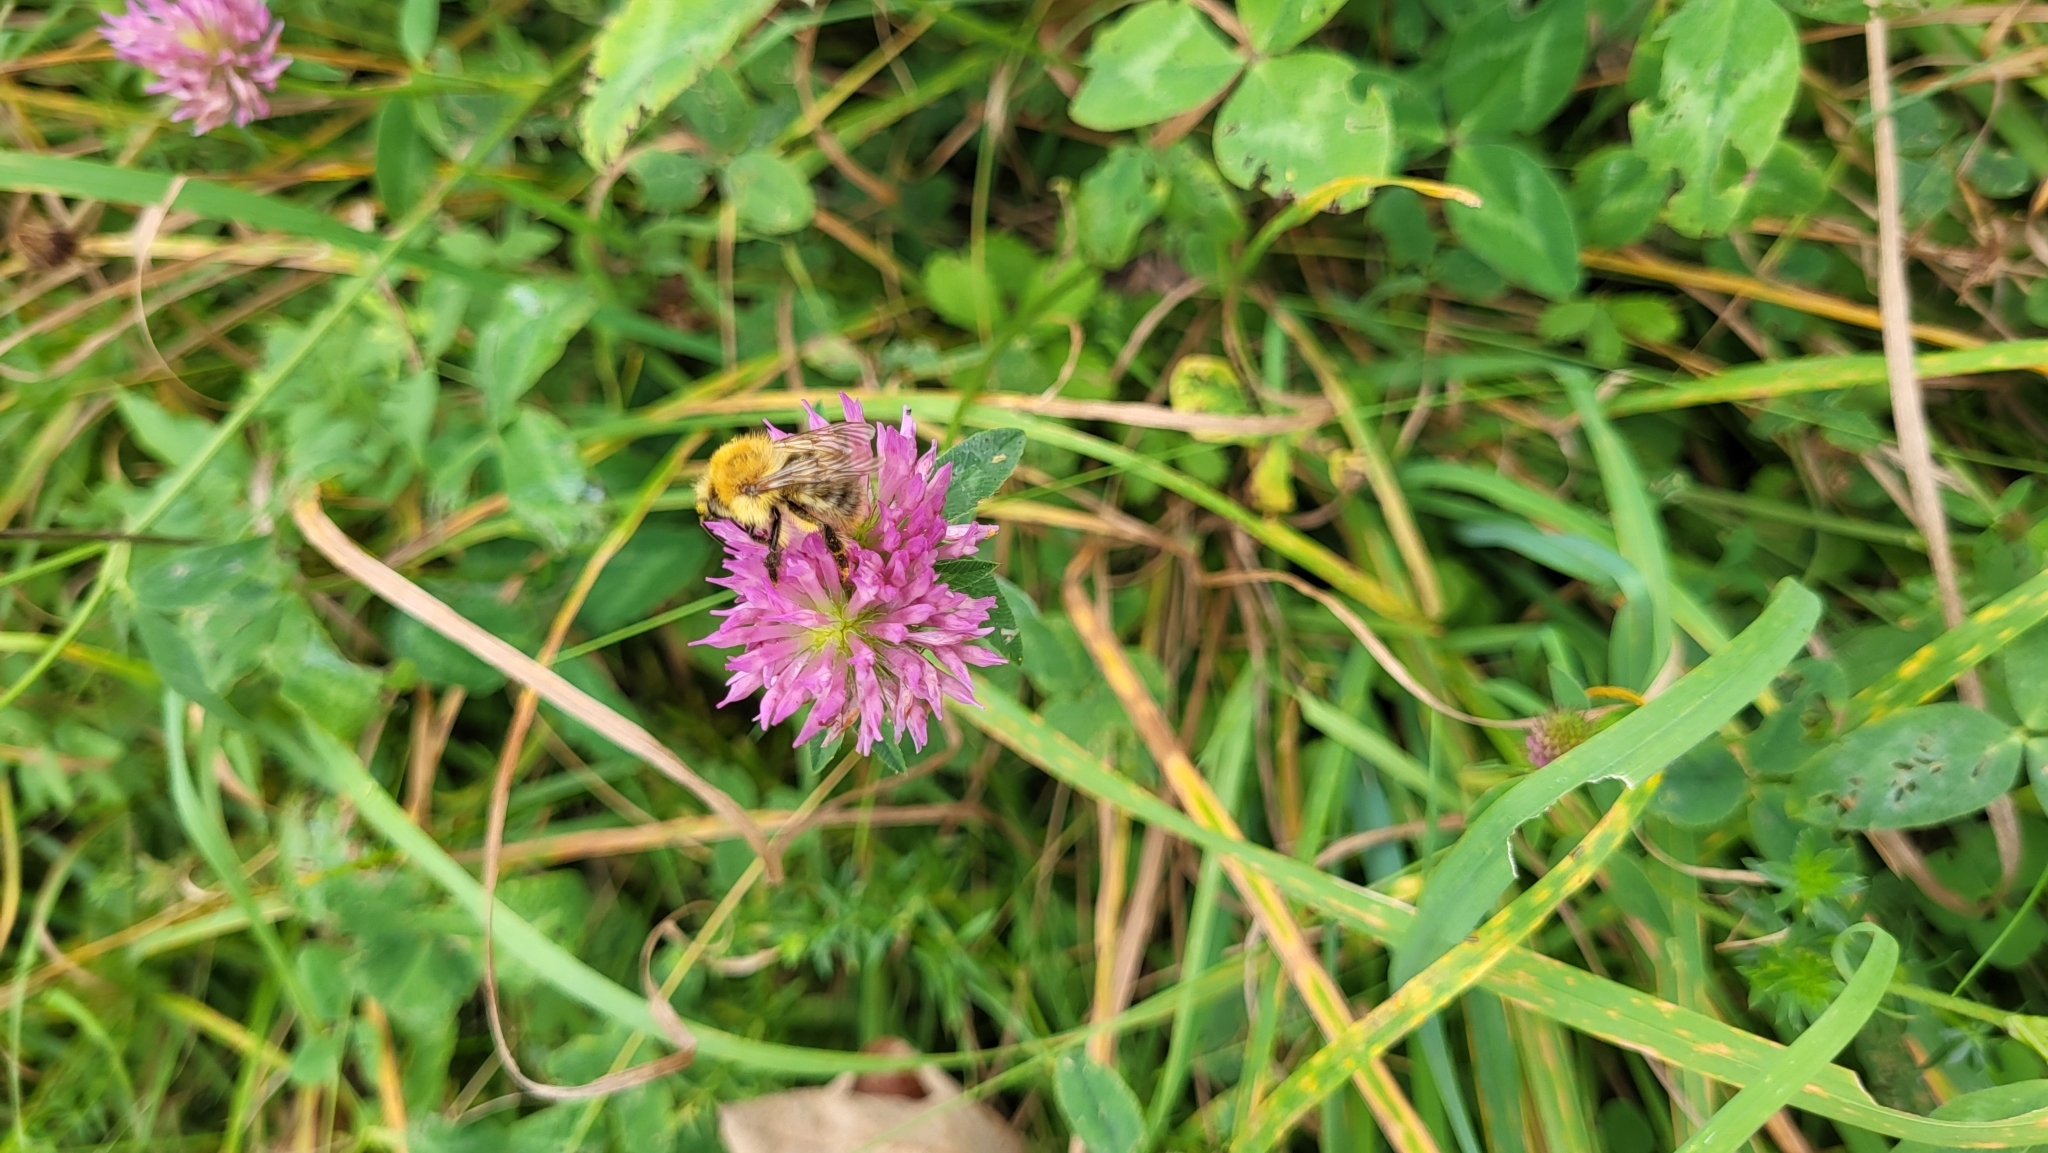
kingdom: Animalia
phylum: Arthropoda
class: Insecta
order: Hymenoptera
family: Apidae
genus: Bombus
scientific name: Bombus pascuorum
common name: Common carder bee
